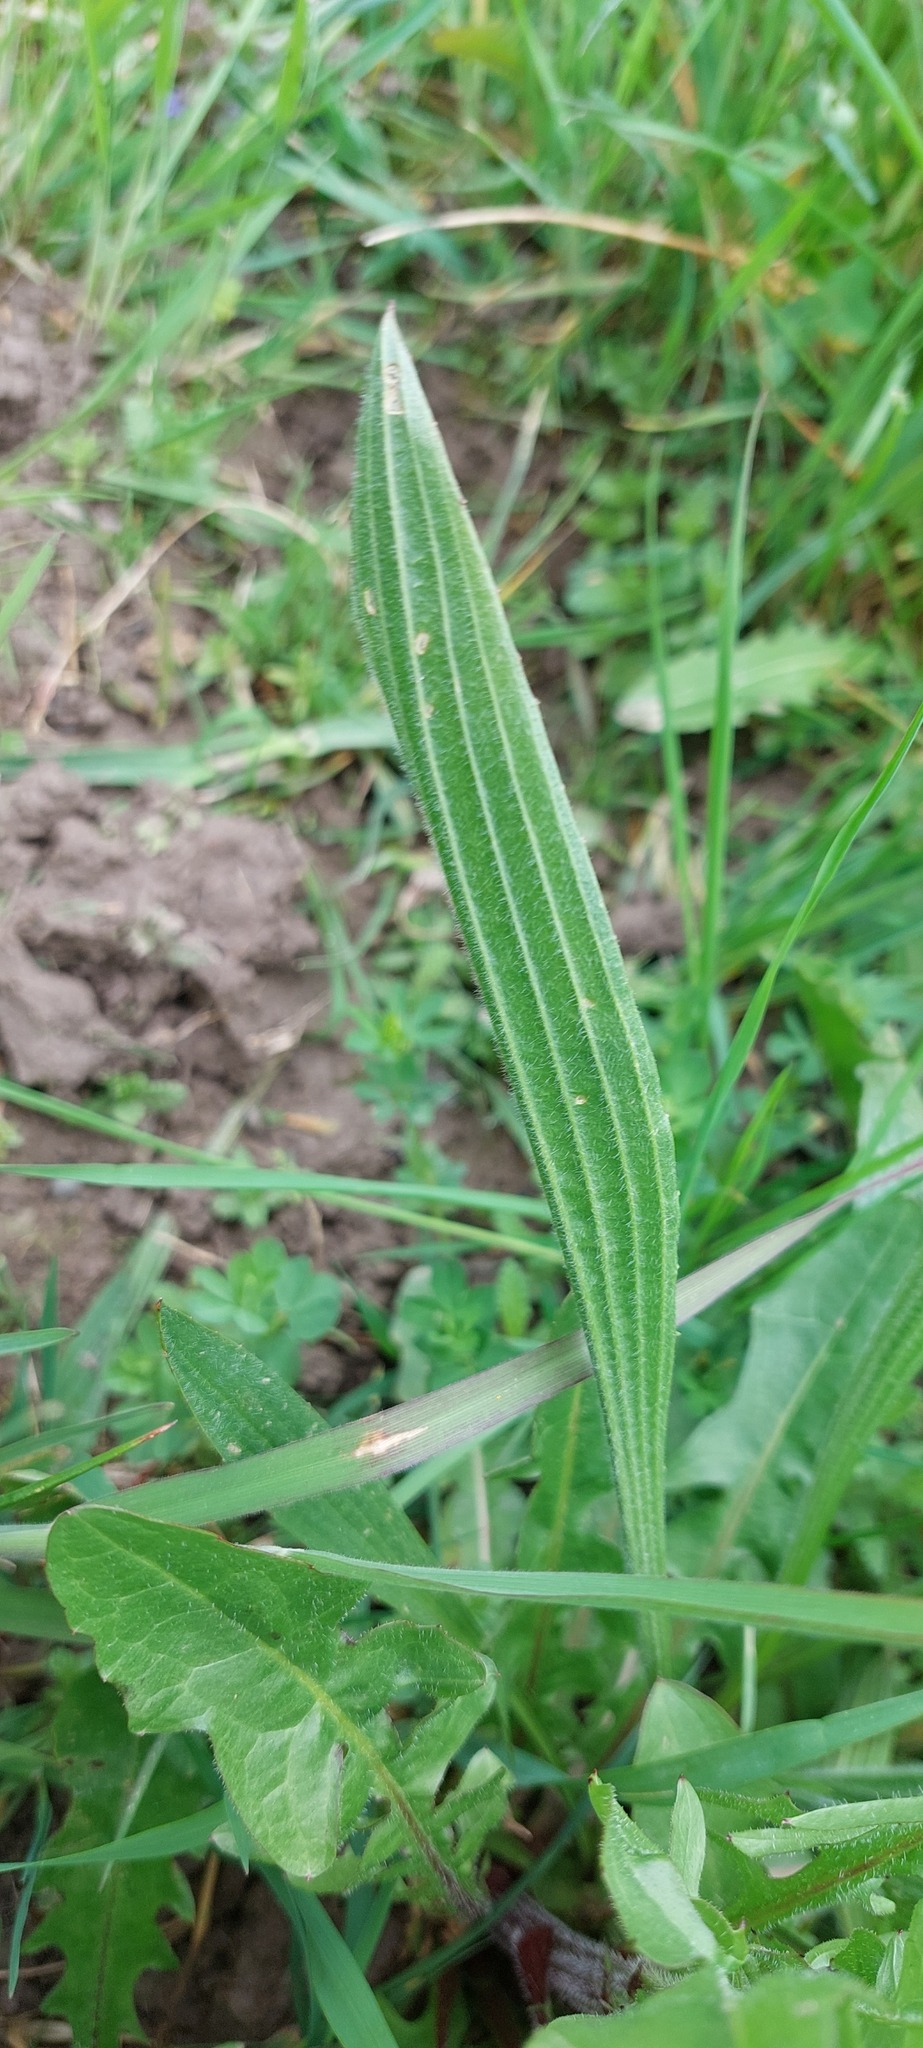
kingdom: Plantae
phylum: Tracheophyta
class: Magnoliopsida
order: Lamiales
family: Plantaginaceae
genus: Plantago
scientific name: Plantago lanceolata
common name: Ribwort plantain
